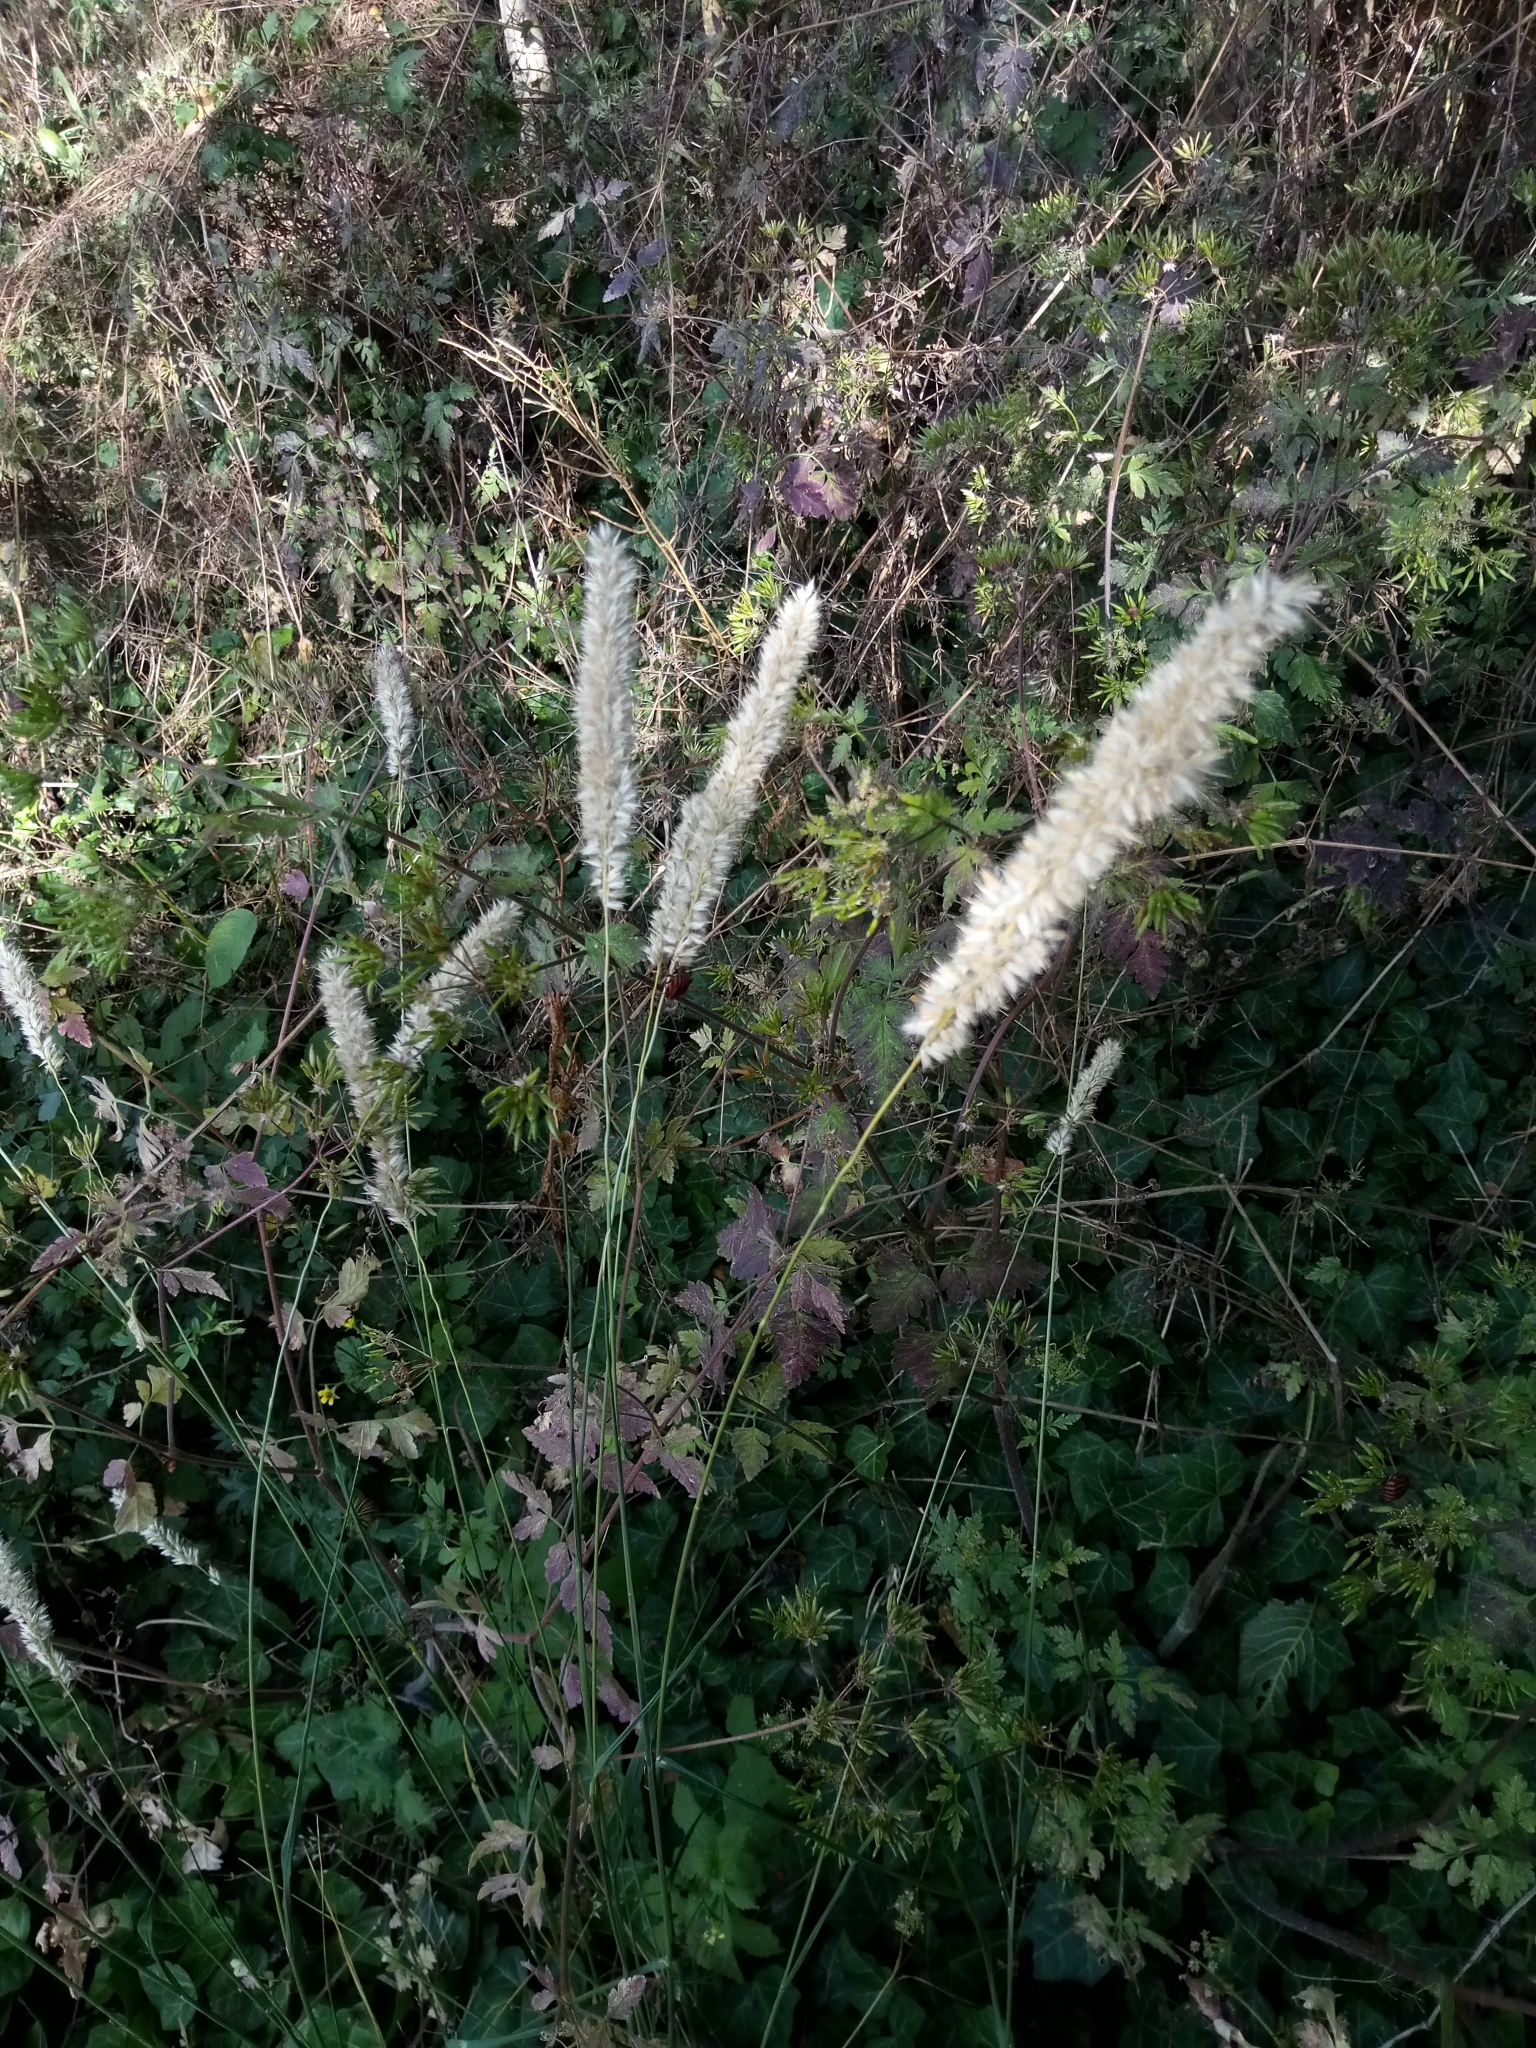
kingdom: Plantae
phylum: Tracheophyta
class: Liliopsida
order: Poales
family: Poaceae
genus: Melica
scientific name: Melica transsilvanica
